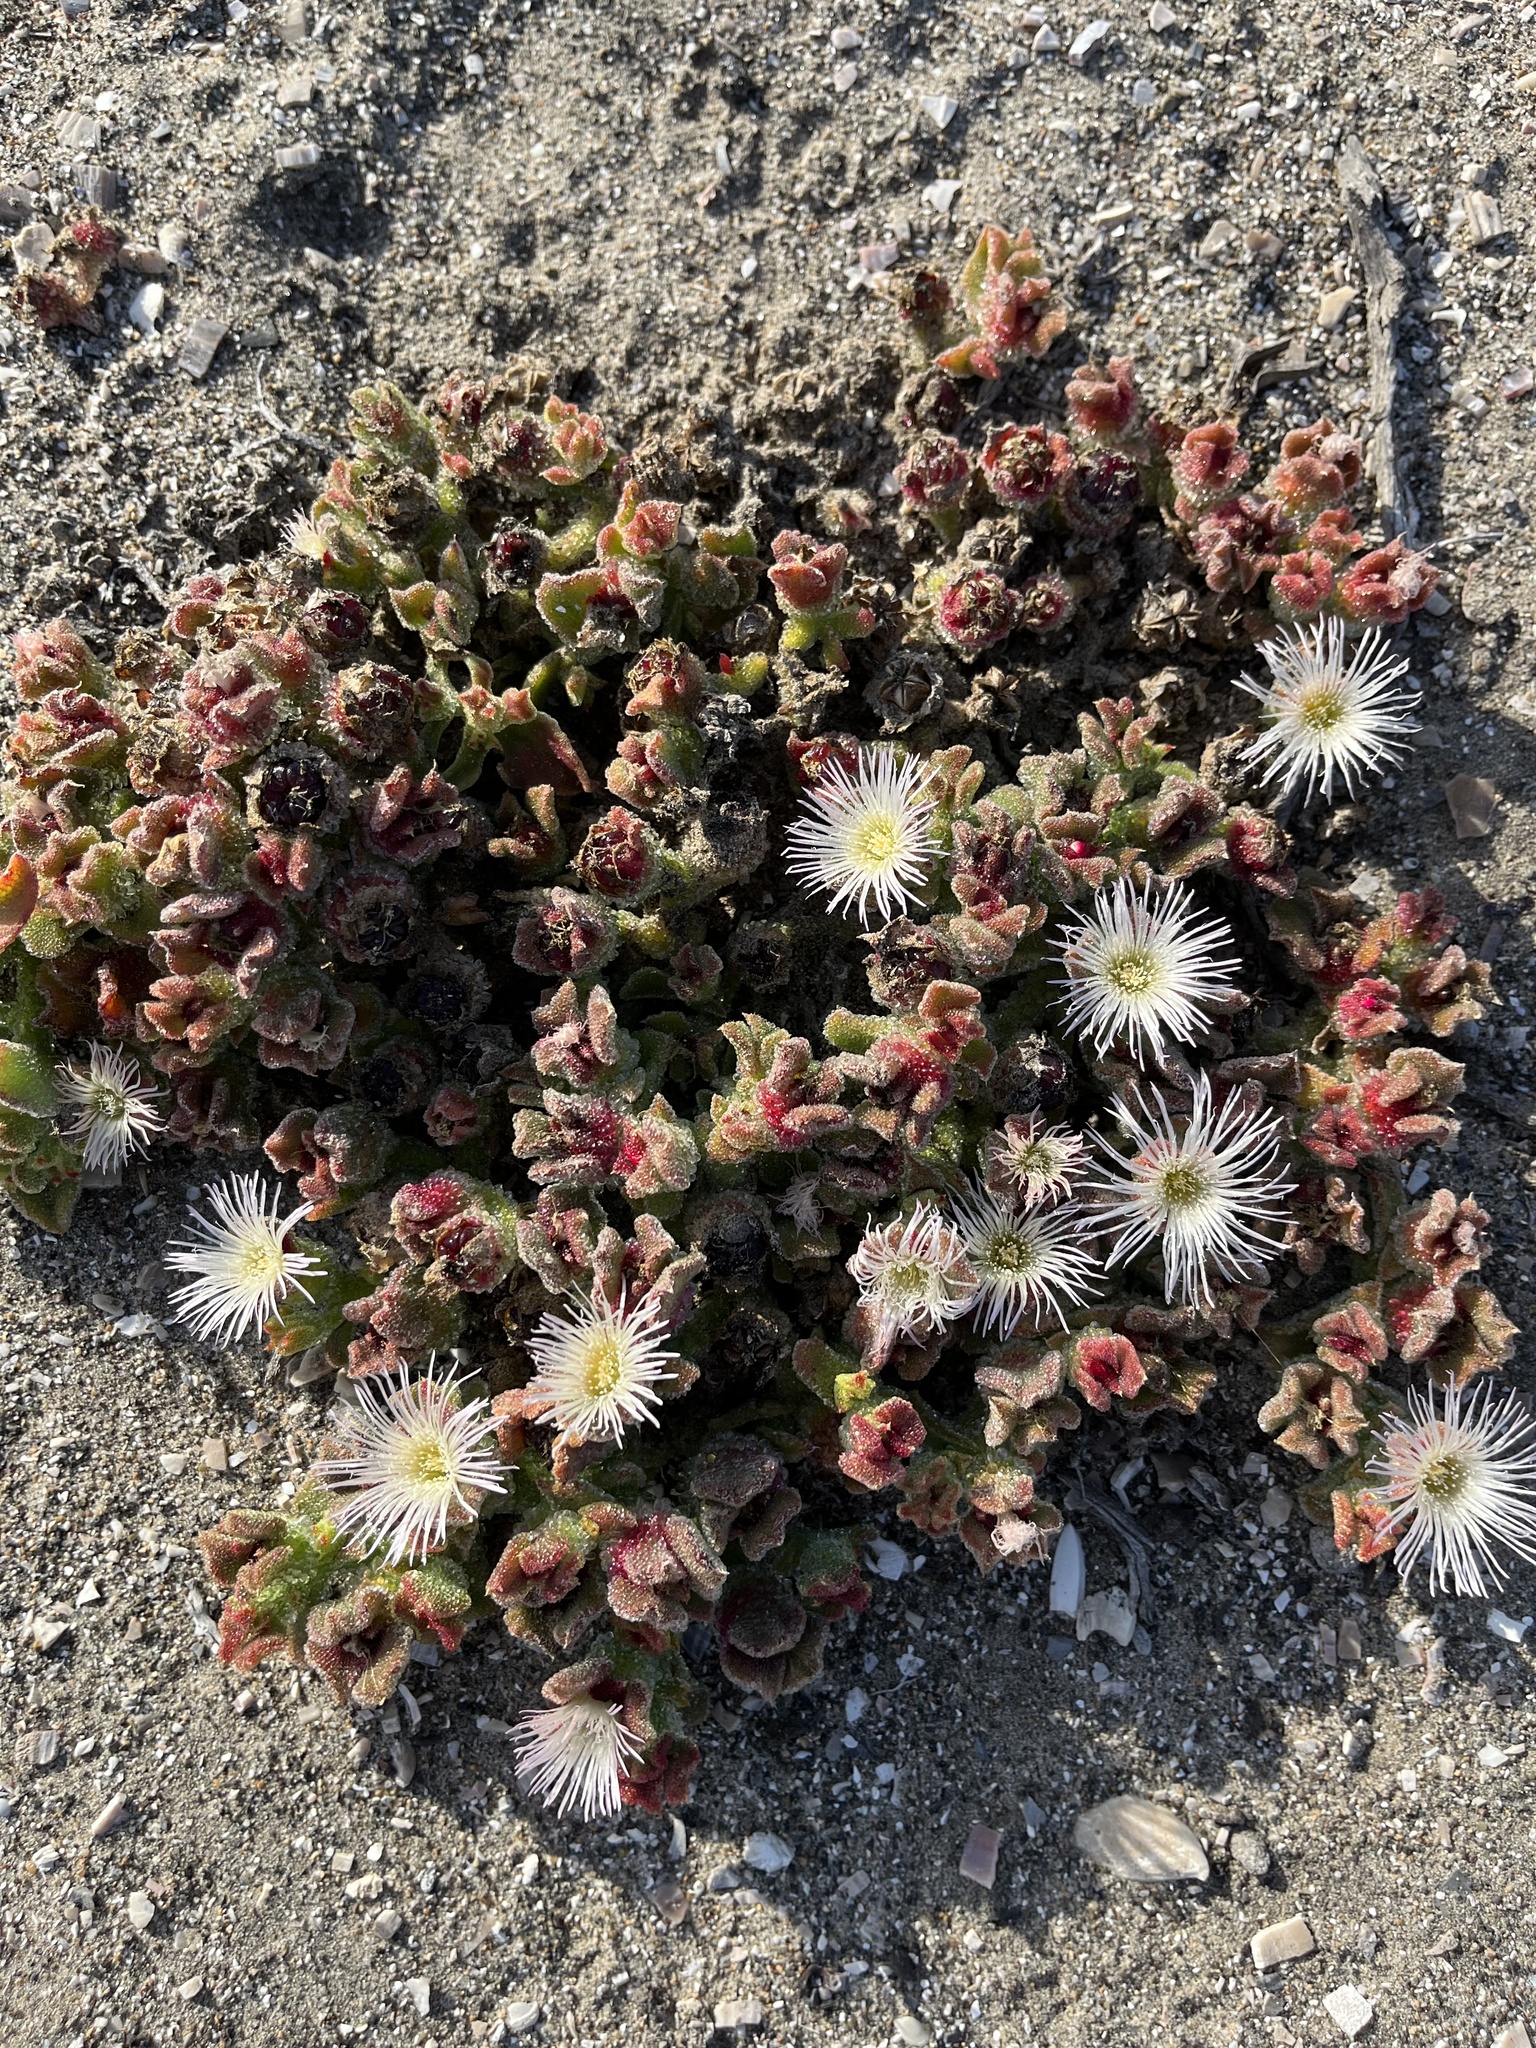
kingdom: Plantae
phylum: Tracheophyta
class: Magnoliopsida
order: Caryophyllales
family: Aizoaceae
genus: Mesembryanthemum
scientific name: Mesembryanthemum crystallinum
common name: Common iceplant
